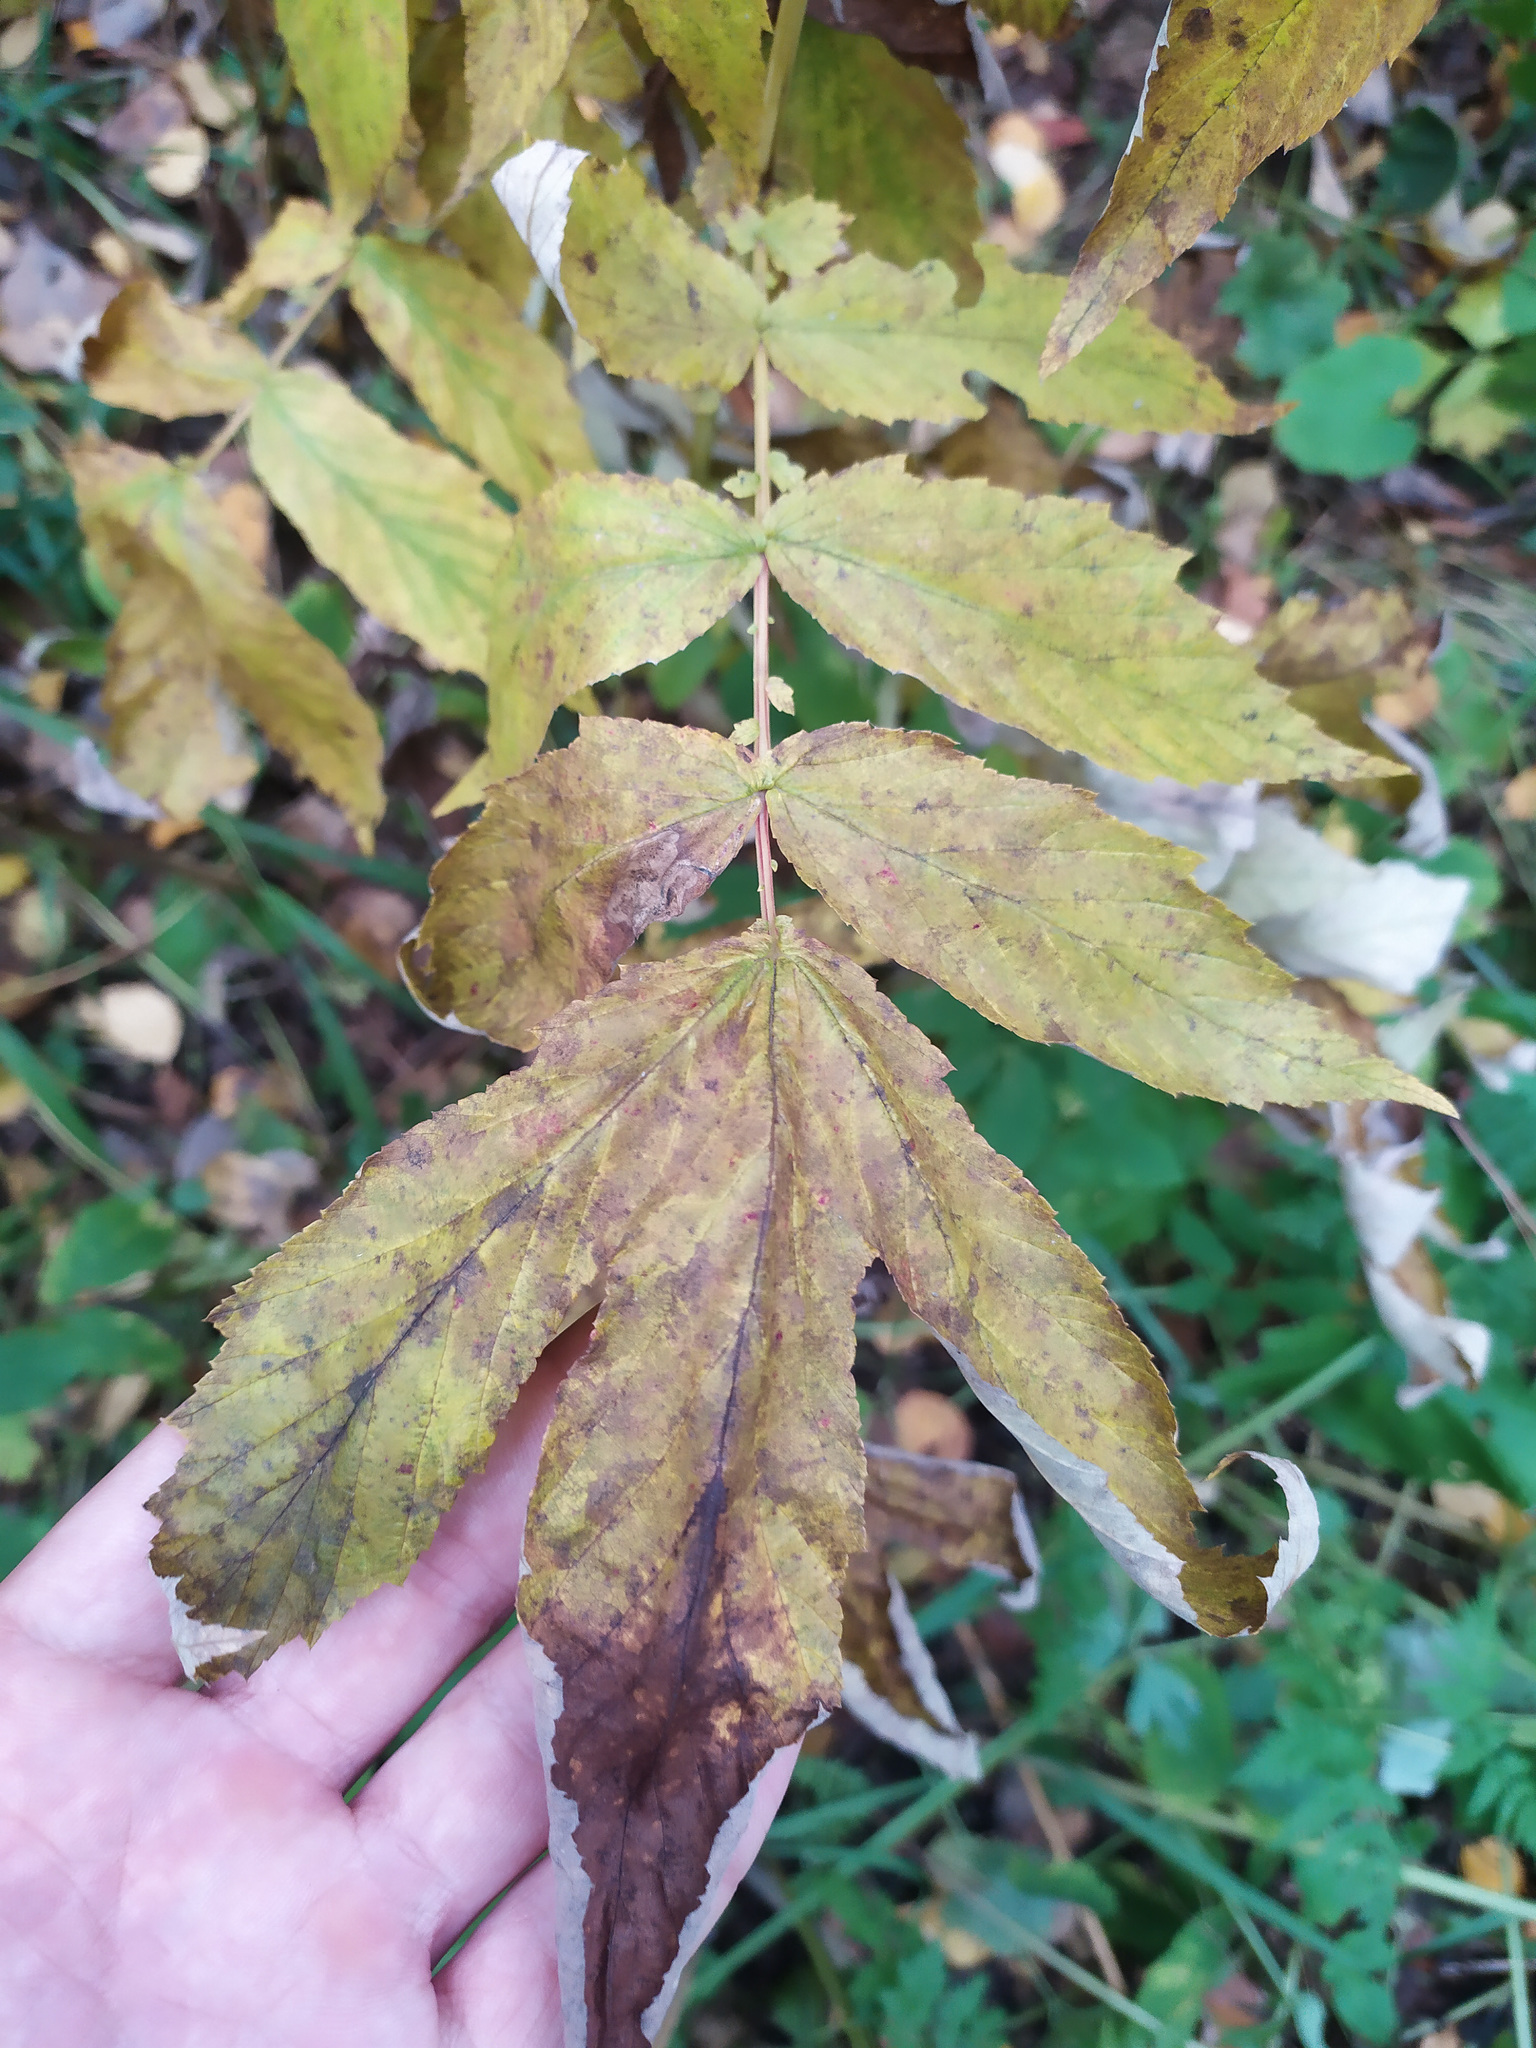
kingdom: Plantae
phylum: Tracheophyta
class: Magnoliopsida
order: Rosales
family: Rosaceae
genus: Filipendula
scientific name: Filipendula ulmaria
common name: Meadowsweet
